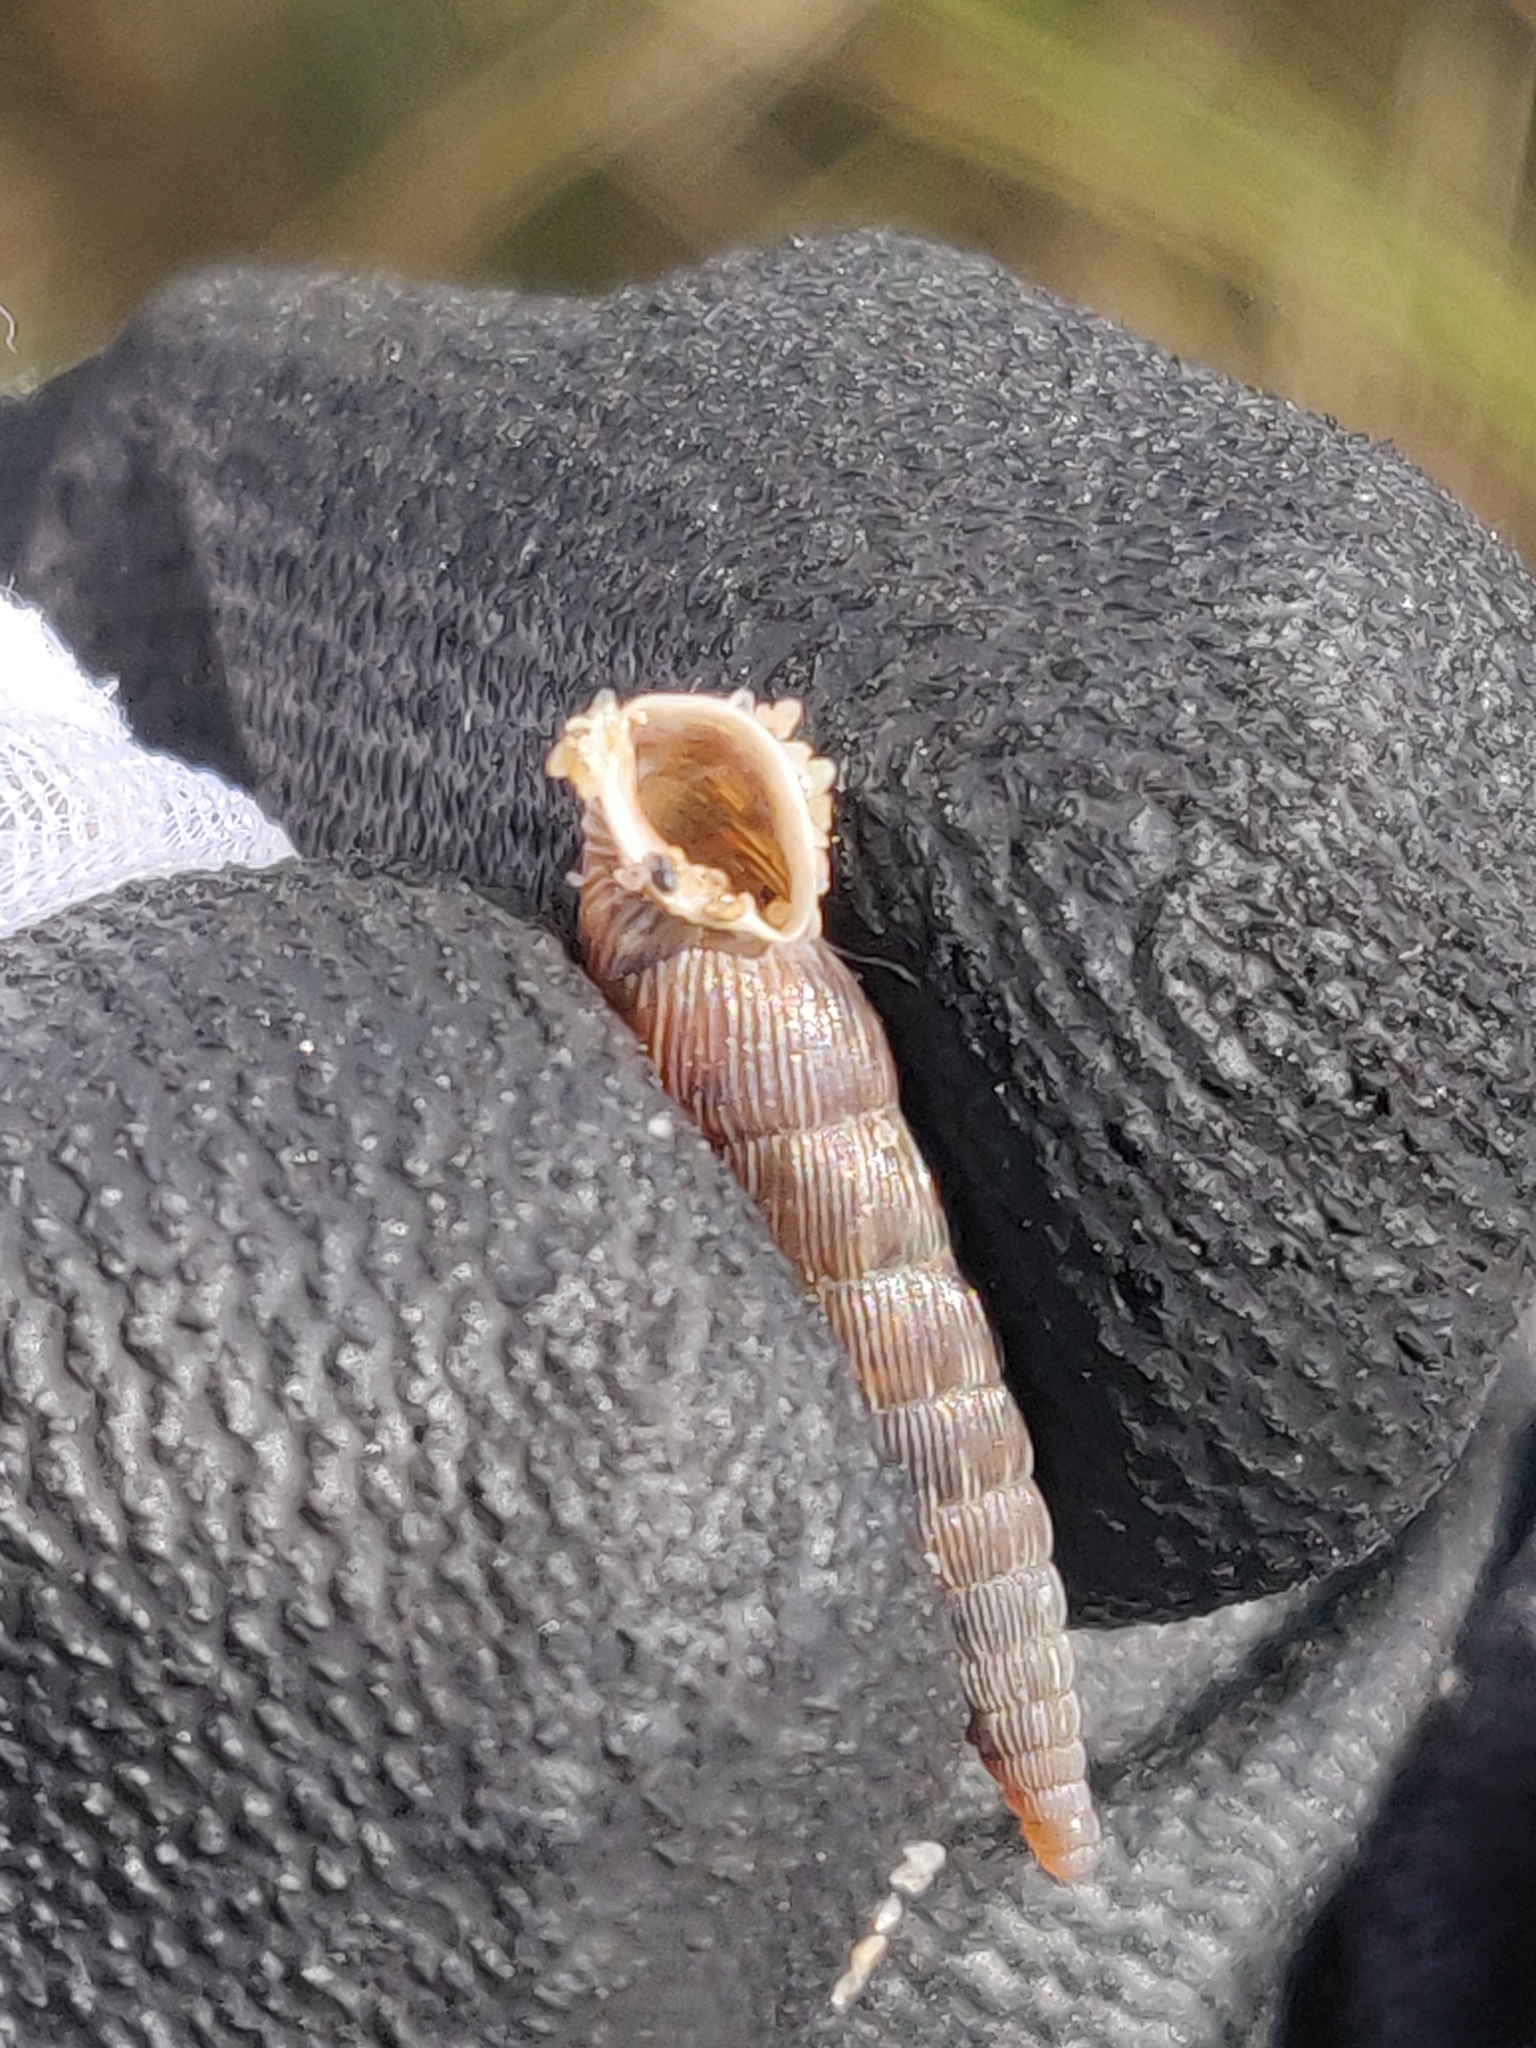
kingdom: Animalia
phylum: Mollusca
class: Gastropoda
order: Stylommatophora
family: Clausiliidae
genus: Alinda
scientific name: Alinda biplicata
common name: Thames door snail
